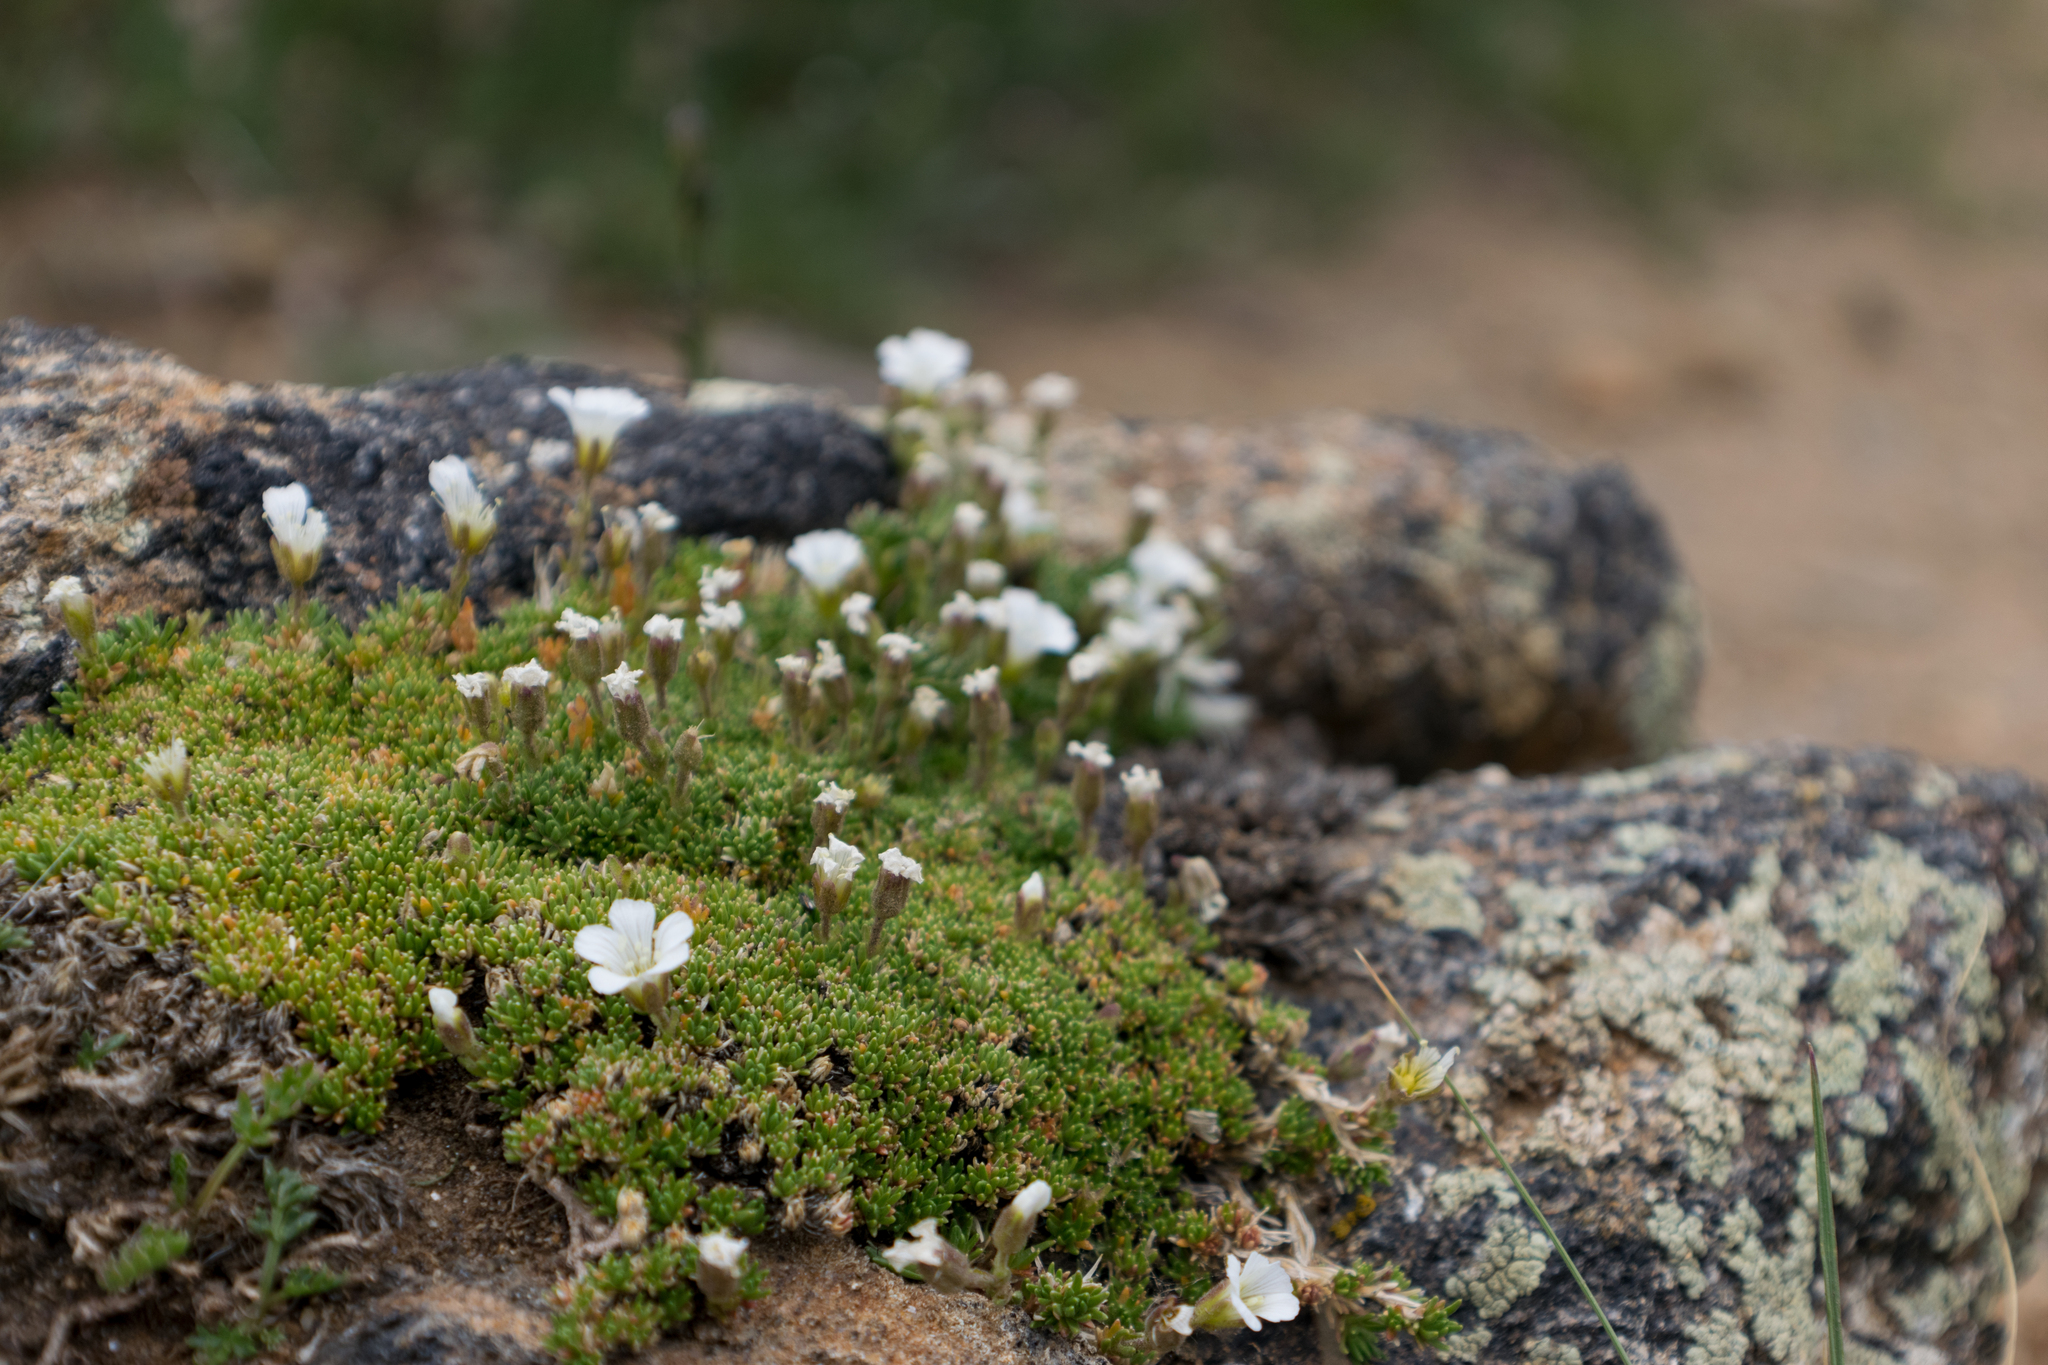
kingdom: Plantae
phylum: Tracheophyta
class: Magnoliopsida
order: Caryophyllales
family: Caryophyllaceae
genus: Cherleria
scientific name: Cherleria obtusiloba
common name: Alpine stitchwort
